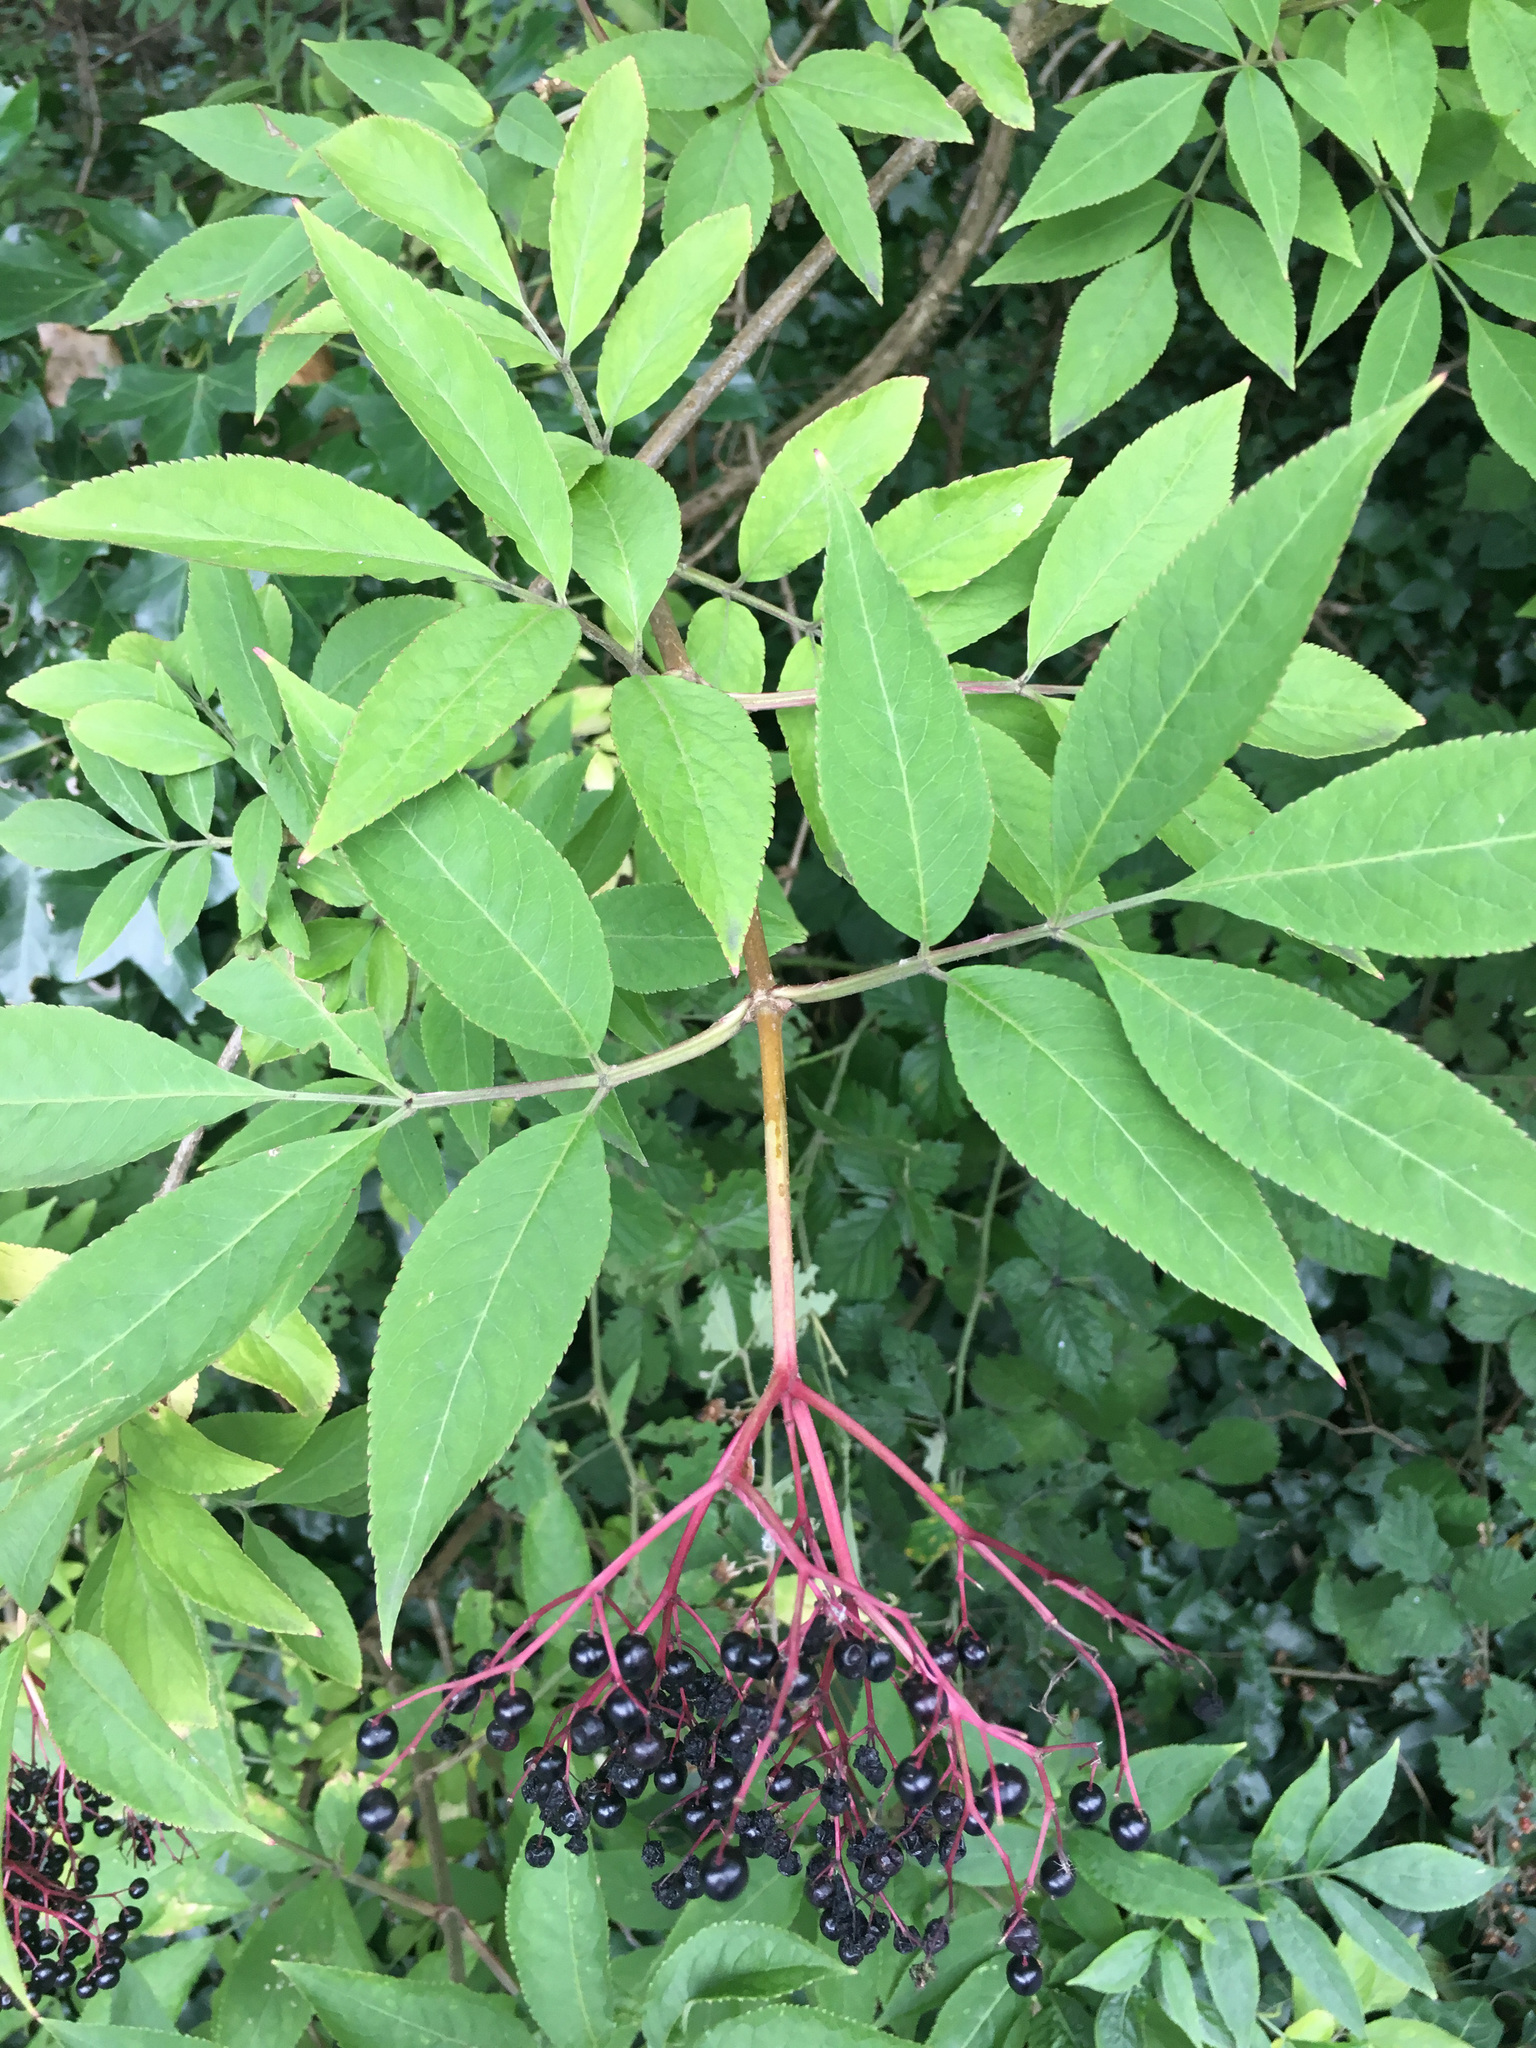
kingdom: Plantae
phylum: Tracheophyta
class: Magnoliopsida
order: Dipsacales
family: Viburnaceae
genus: Sambucus
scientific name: Sambucus nigra
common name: Elder
